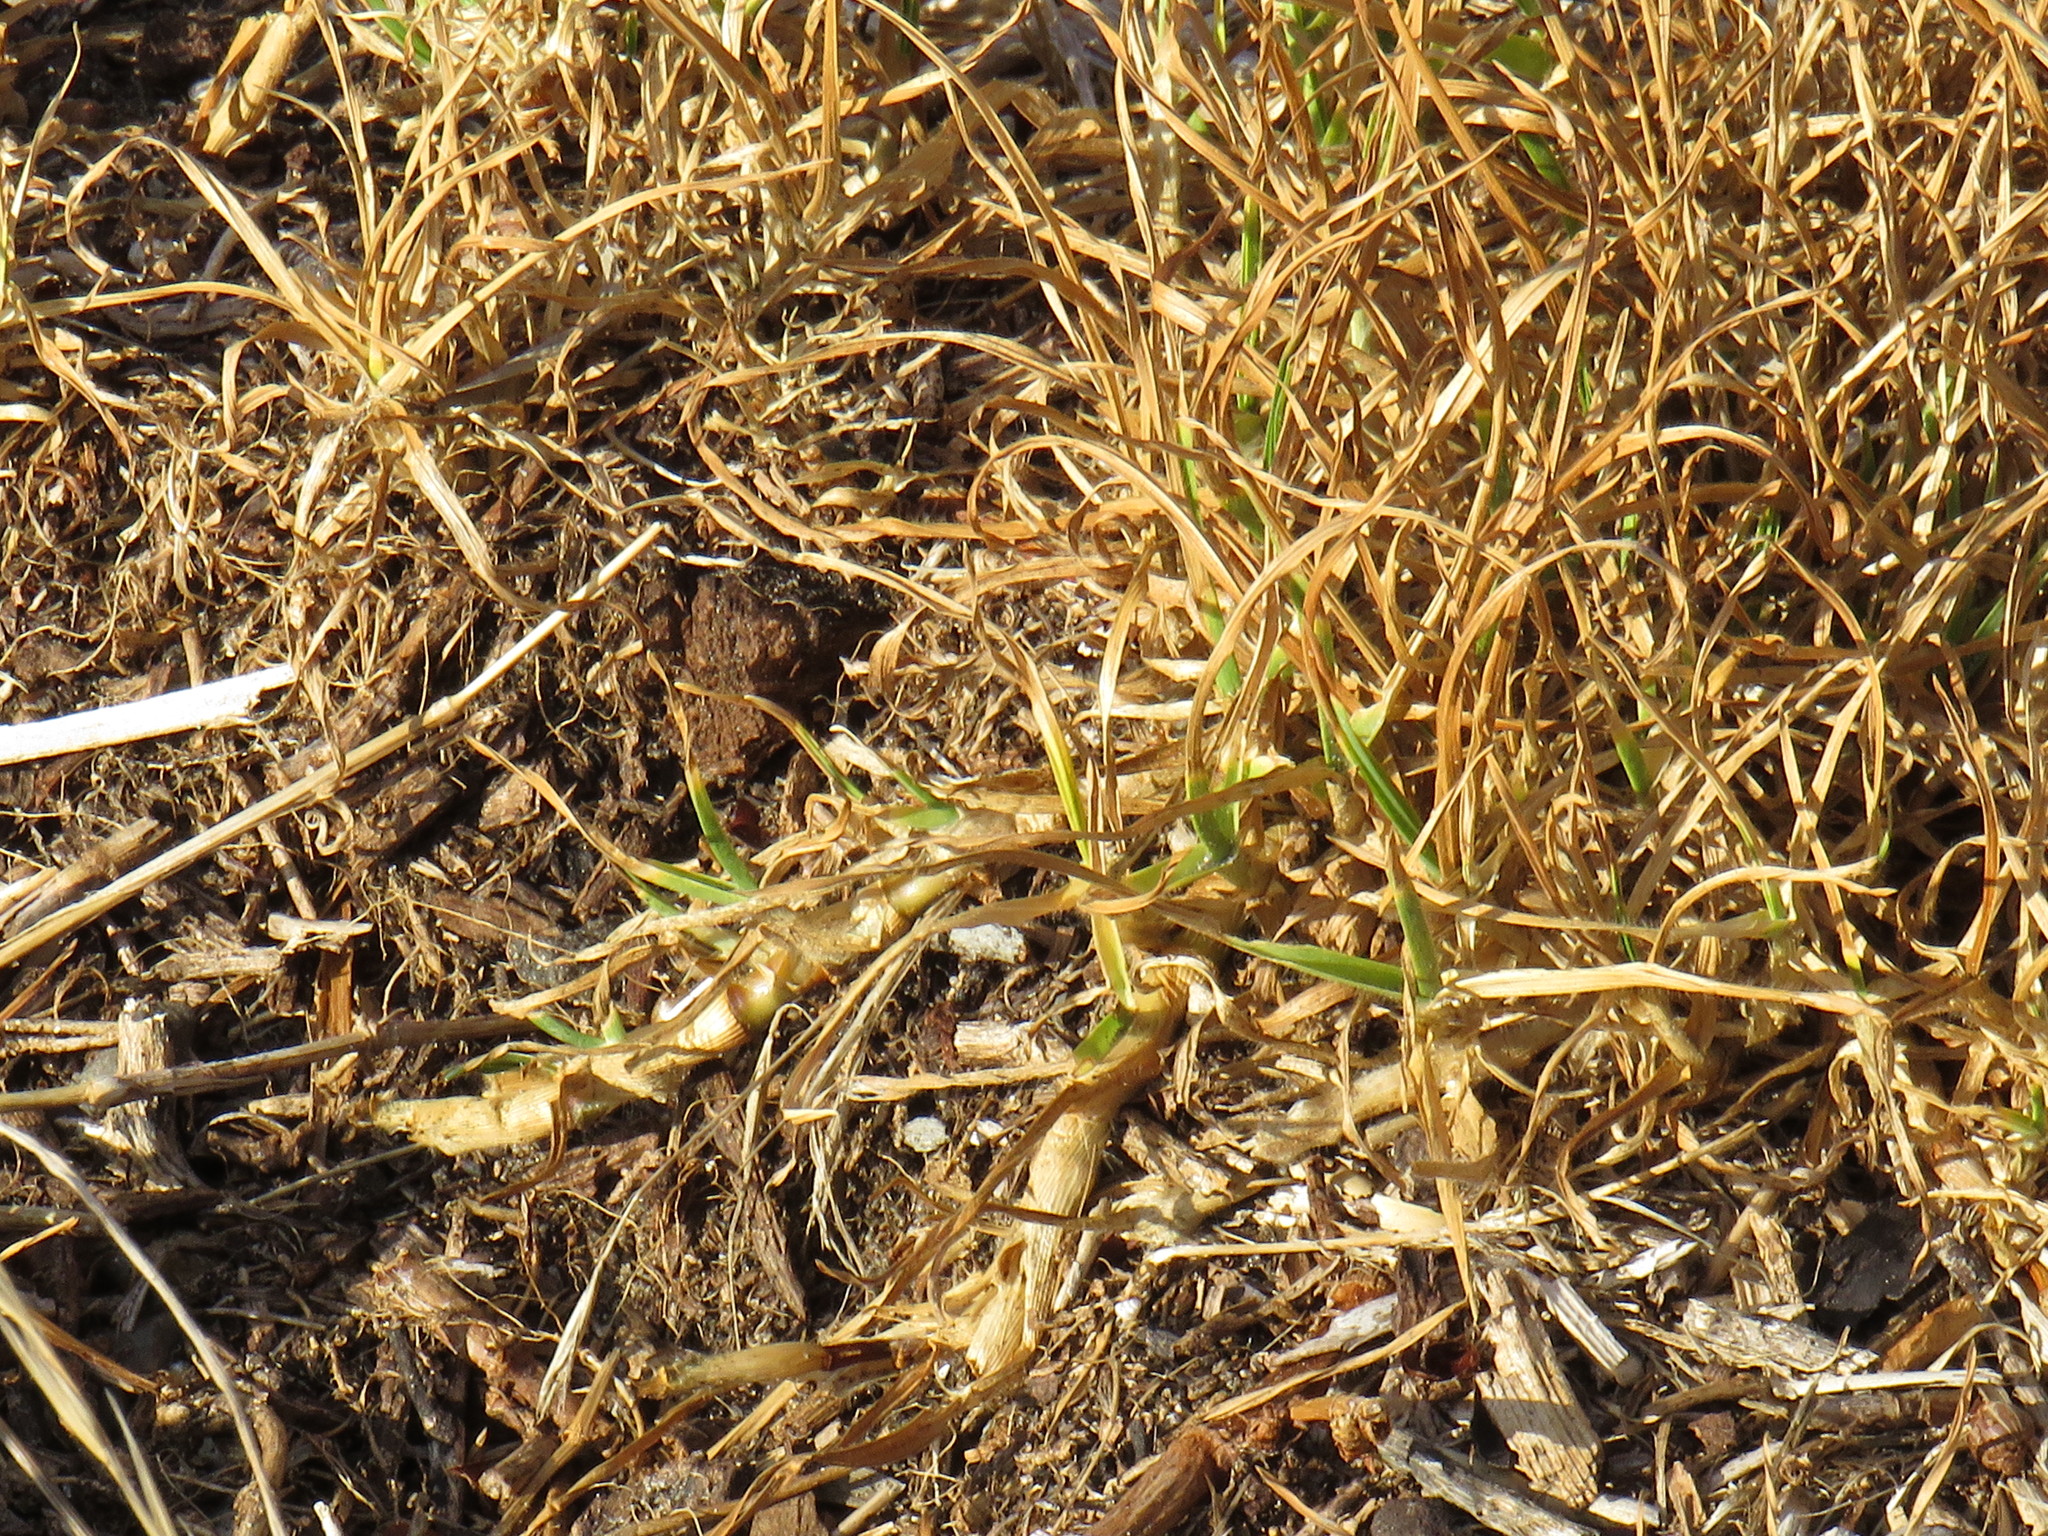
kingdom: Plantae
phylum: Tracheophyta
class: Liliopsida
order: Poales
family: Poaceae
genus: Cenchrus
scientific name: Cenchrus clandestinus
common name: Kikuyugrass
